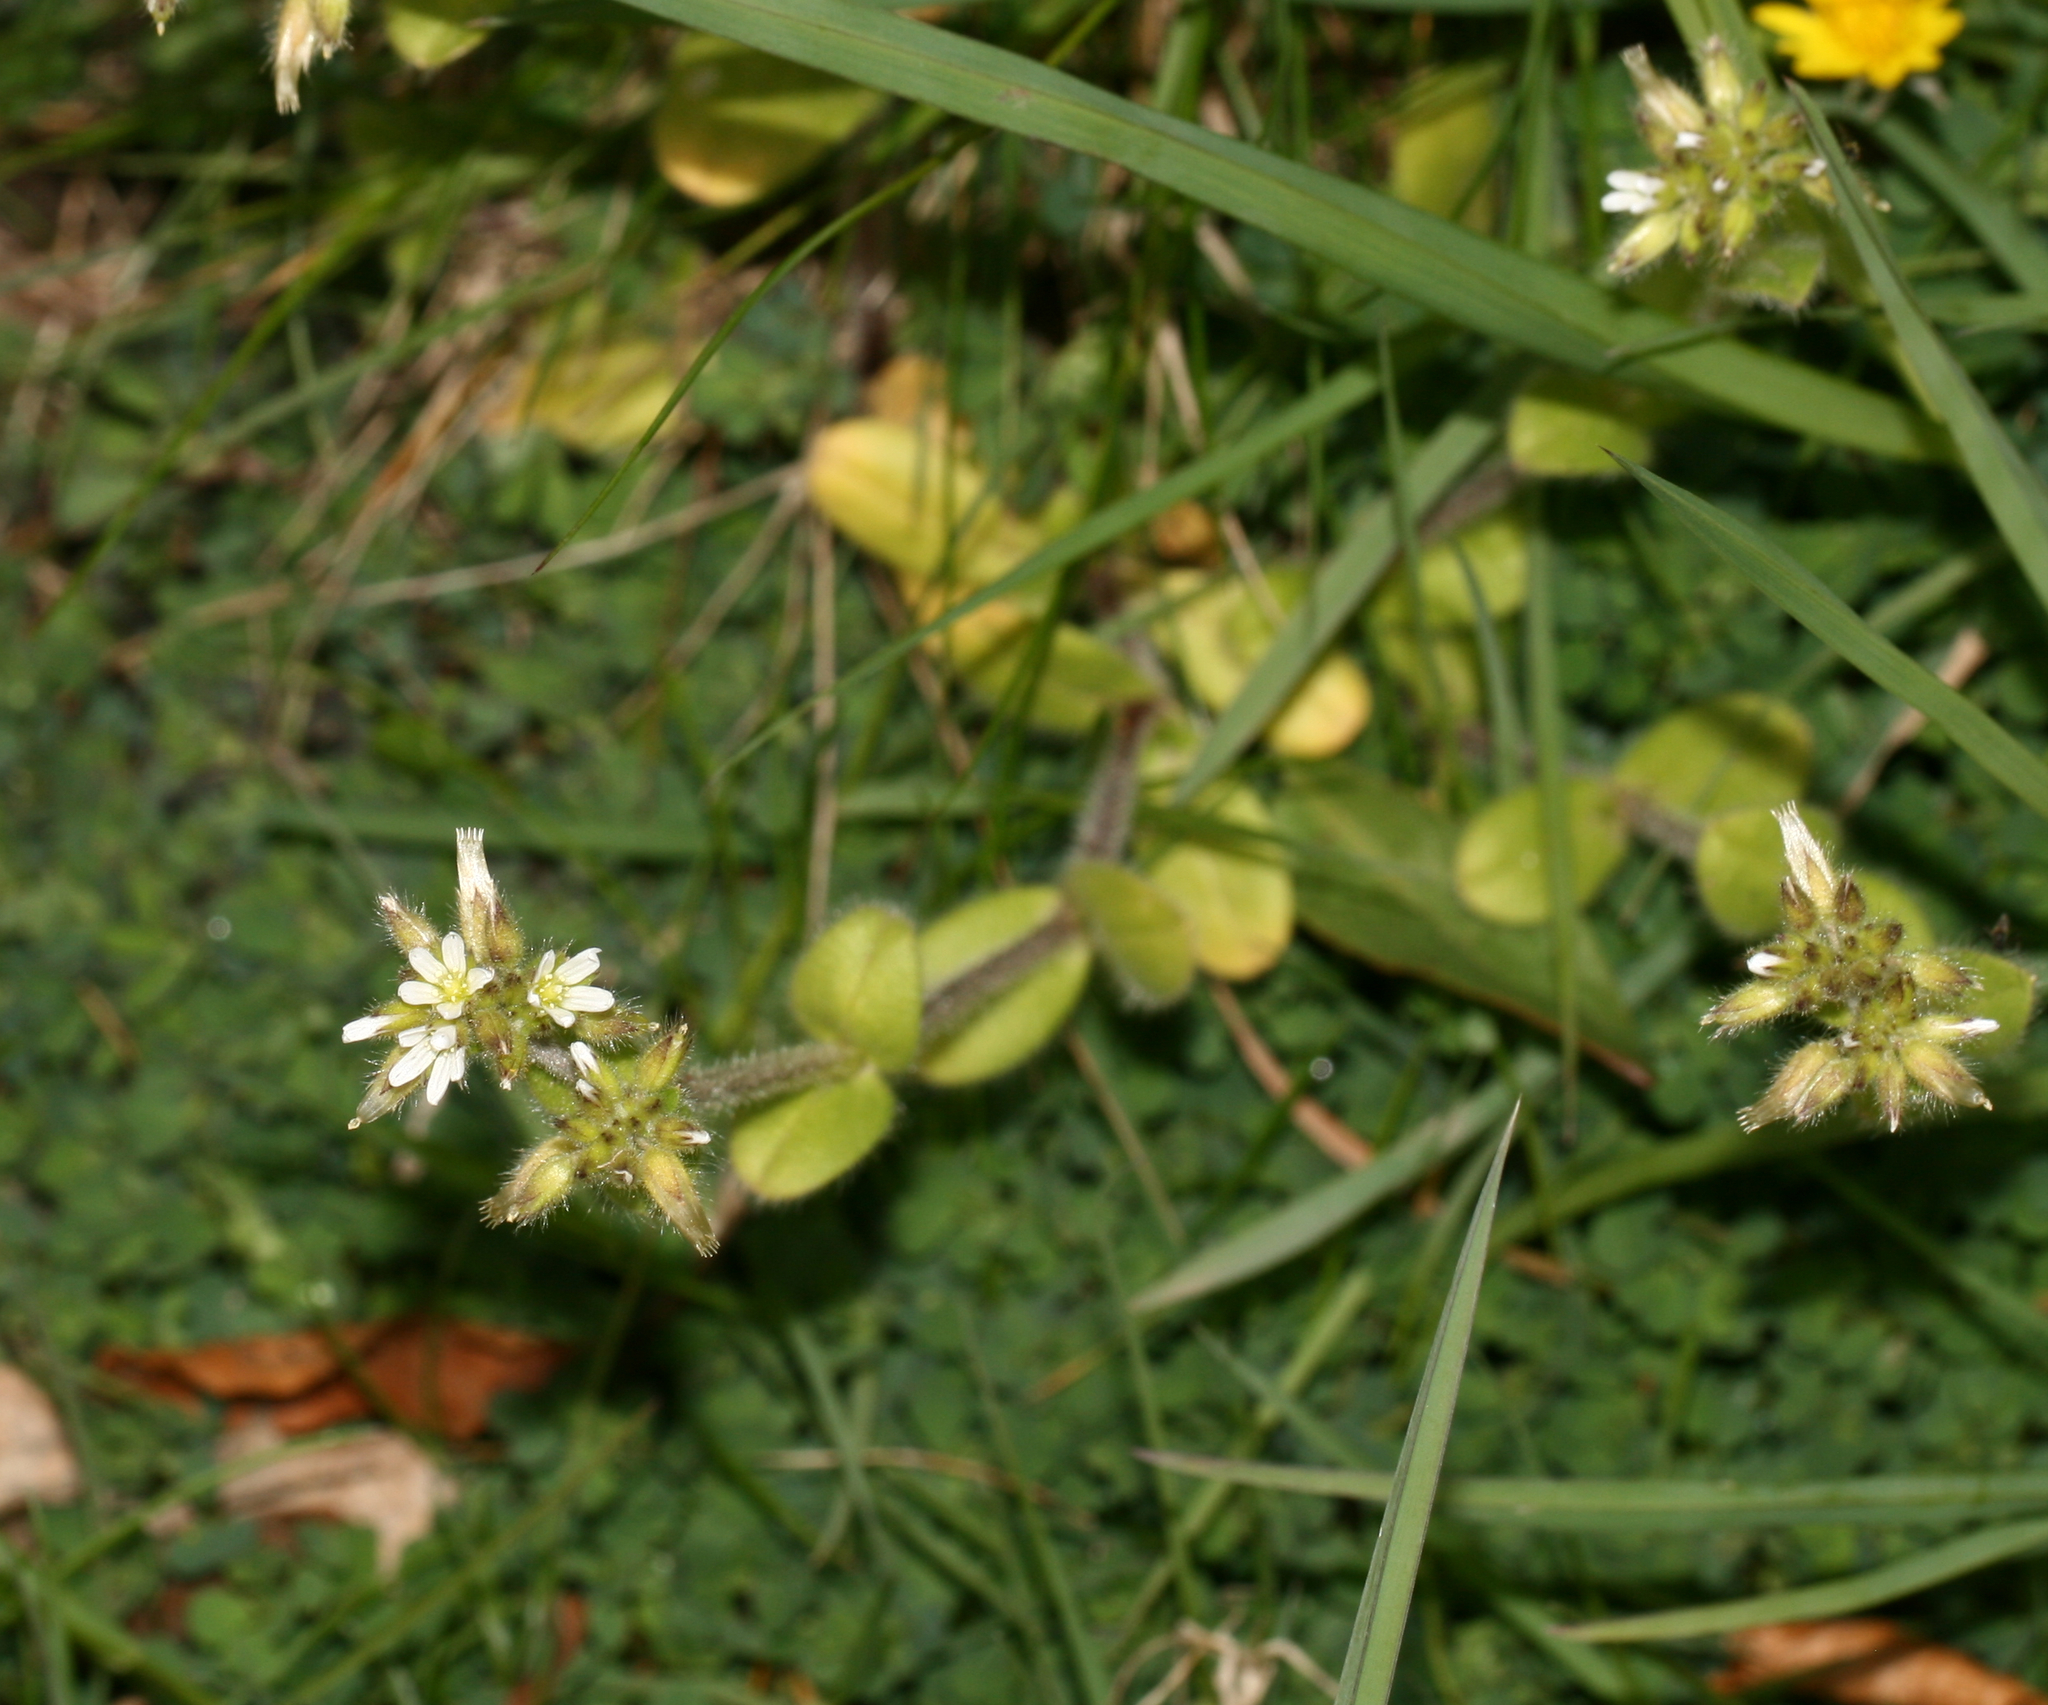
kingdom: Plantae
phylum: Tracheophyta
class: Magnoliopsida
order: Caryophyllales
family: Caryophyllaceae
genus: Cerastium
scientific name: Cerastium glomeratum
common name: Sticky chickweed
